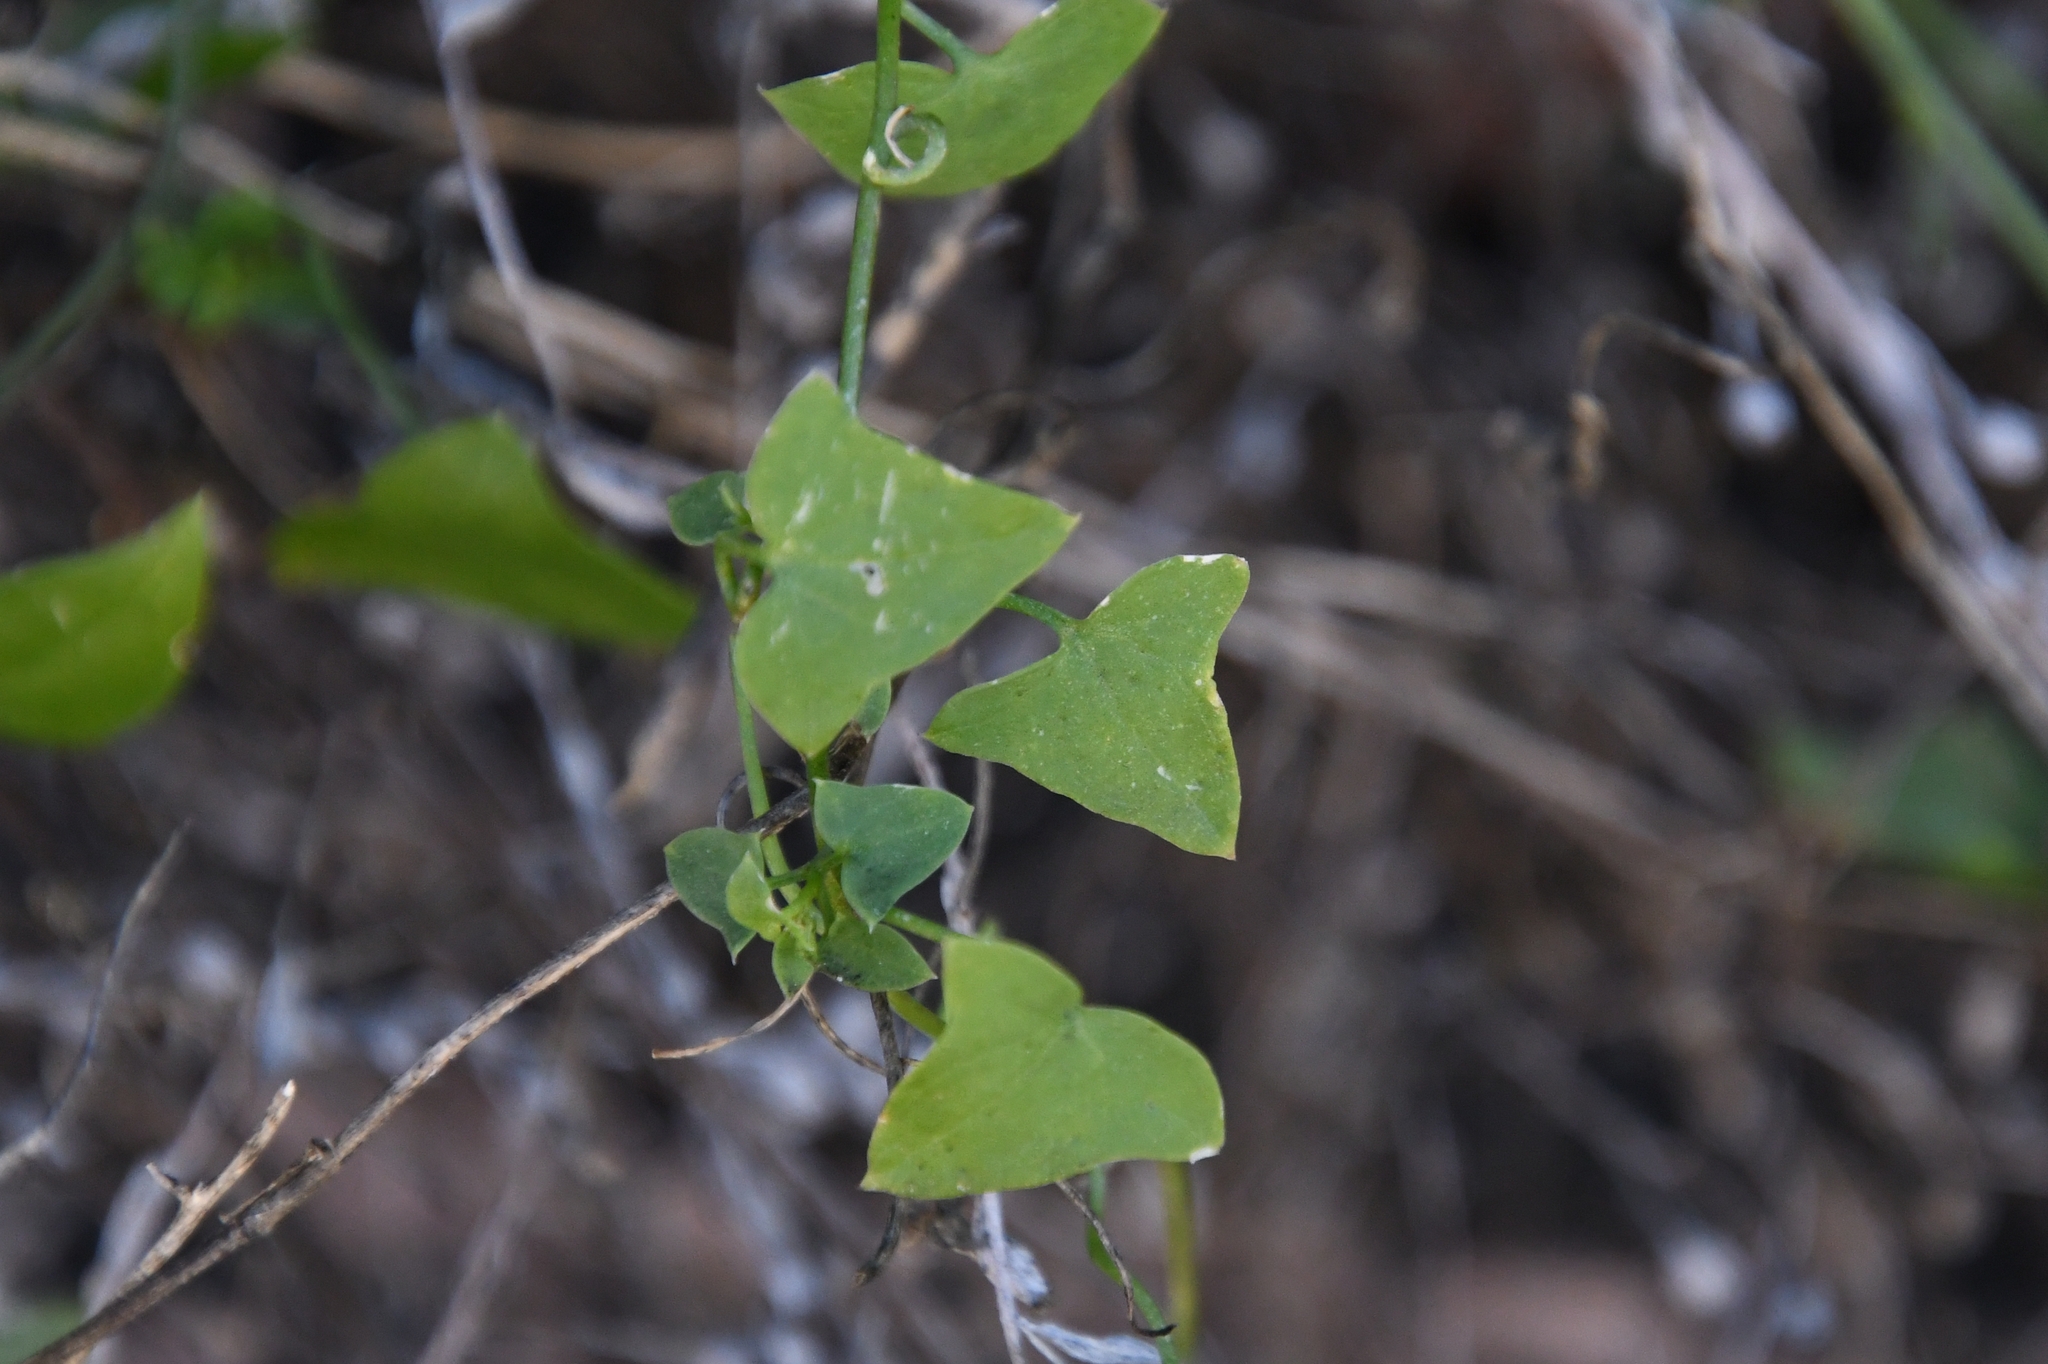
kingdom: Plantae
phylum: Tracheophyta
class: Magnoliopsida
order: Lamiales
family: Plantaginaceae
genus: Maurandella
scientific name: Maurandella antirrhiniflora
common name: Violet twining-snapdragon
